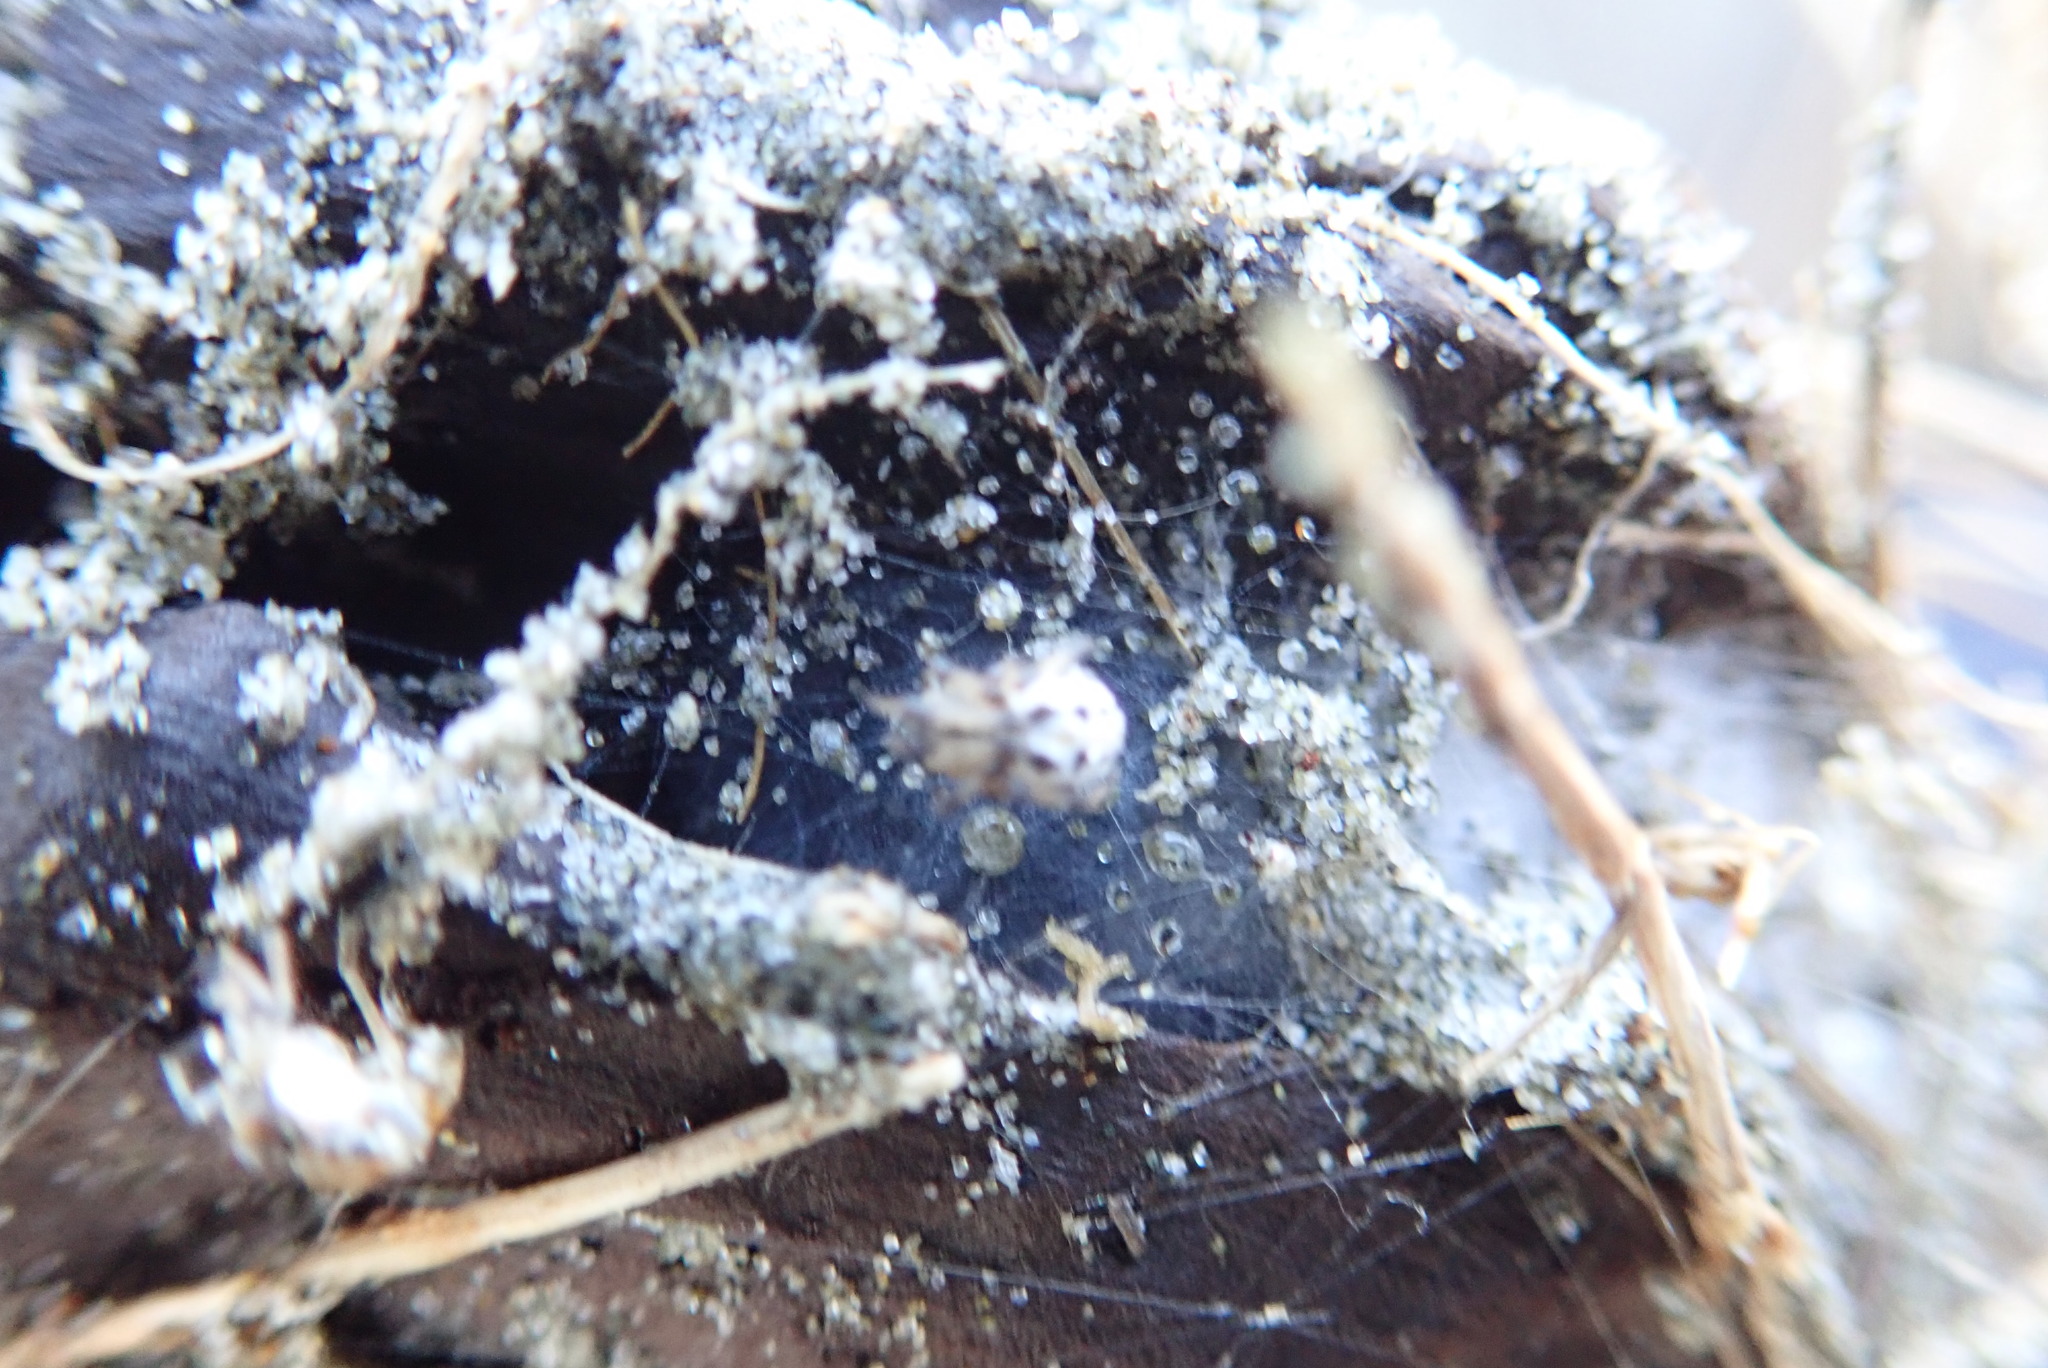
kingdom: Animalia
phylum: Arthropoda
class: Arachnida
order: Araneae
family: Theridiidae
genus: Latrodectus
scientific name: Latrodectus katipo
